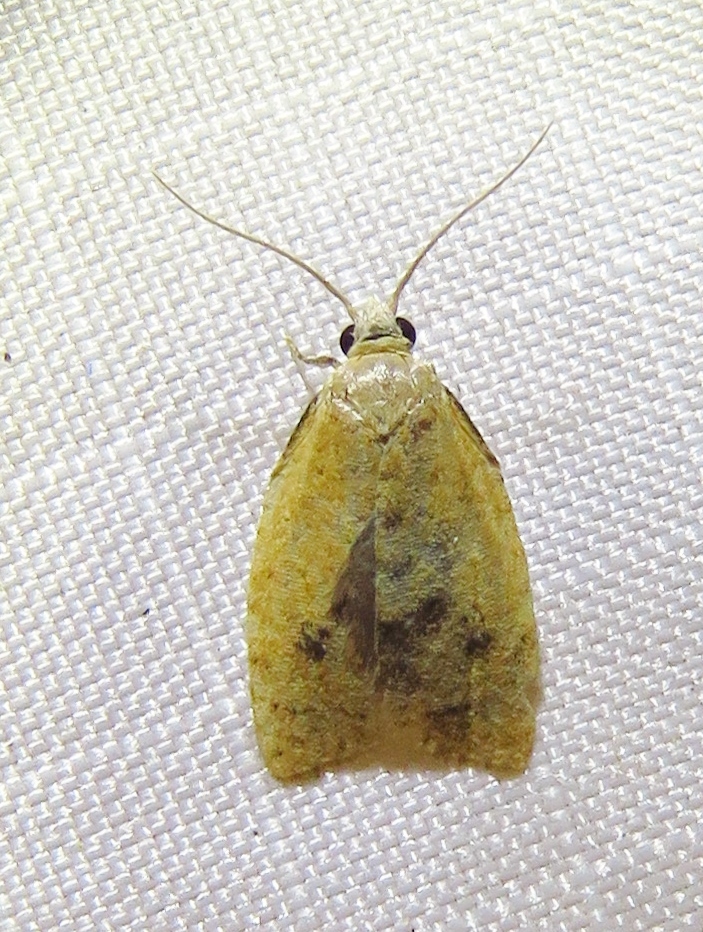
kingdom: Animalia
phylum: Arthropoda
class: Insecta
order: Lepidoptera
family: Tortricidae
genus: Sparganothoides
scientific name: Sparganothoides lentiginosana
